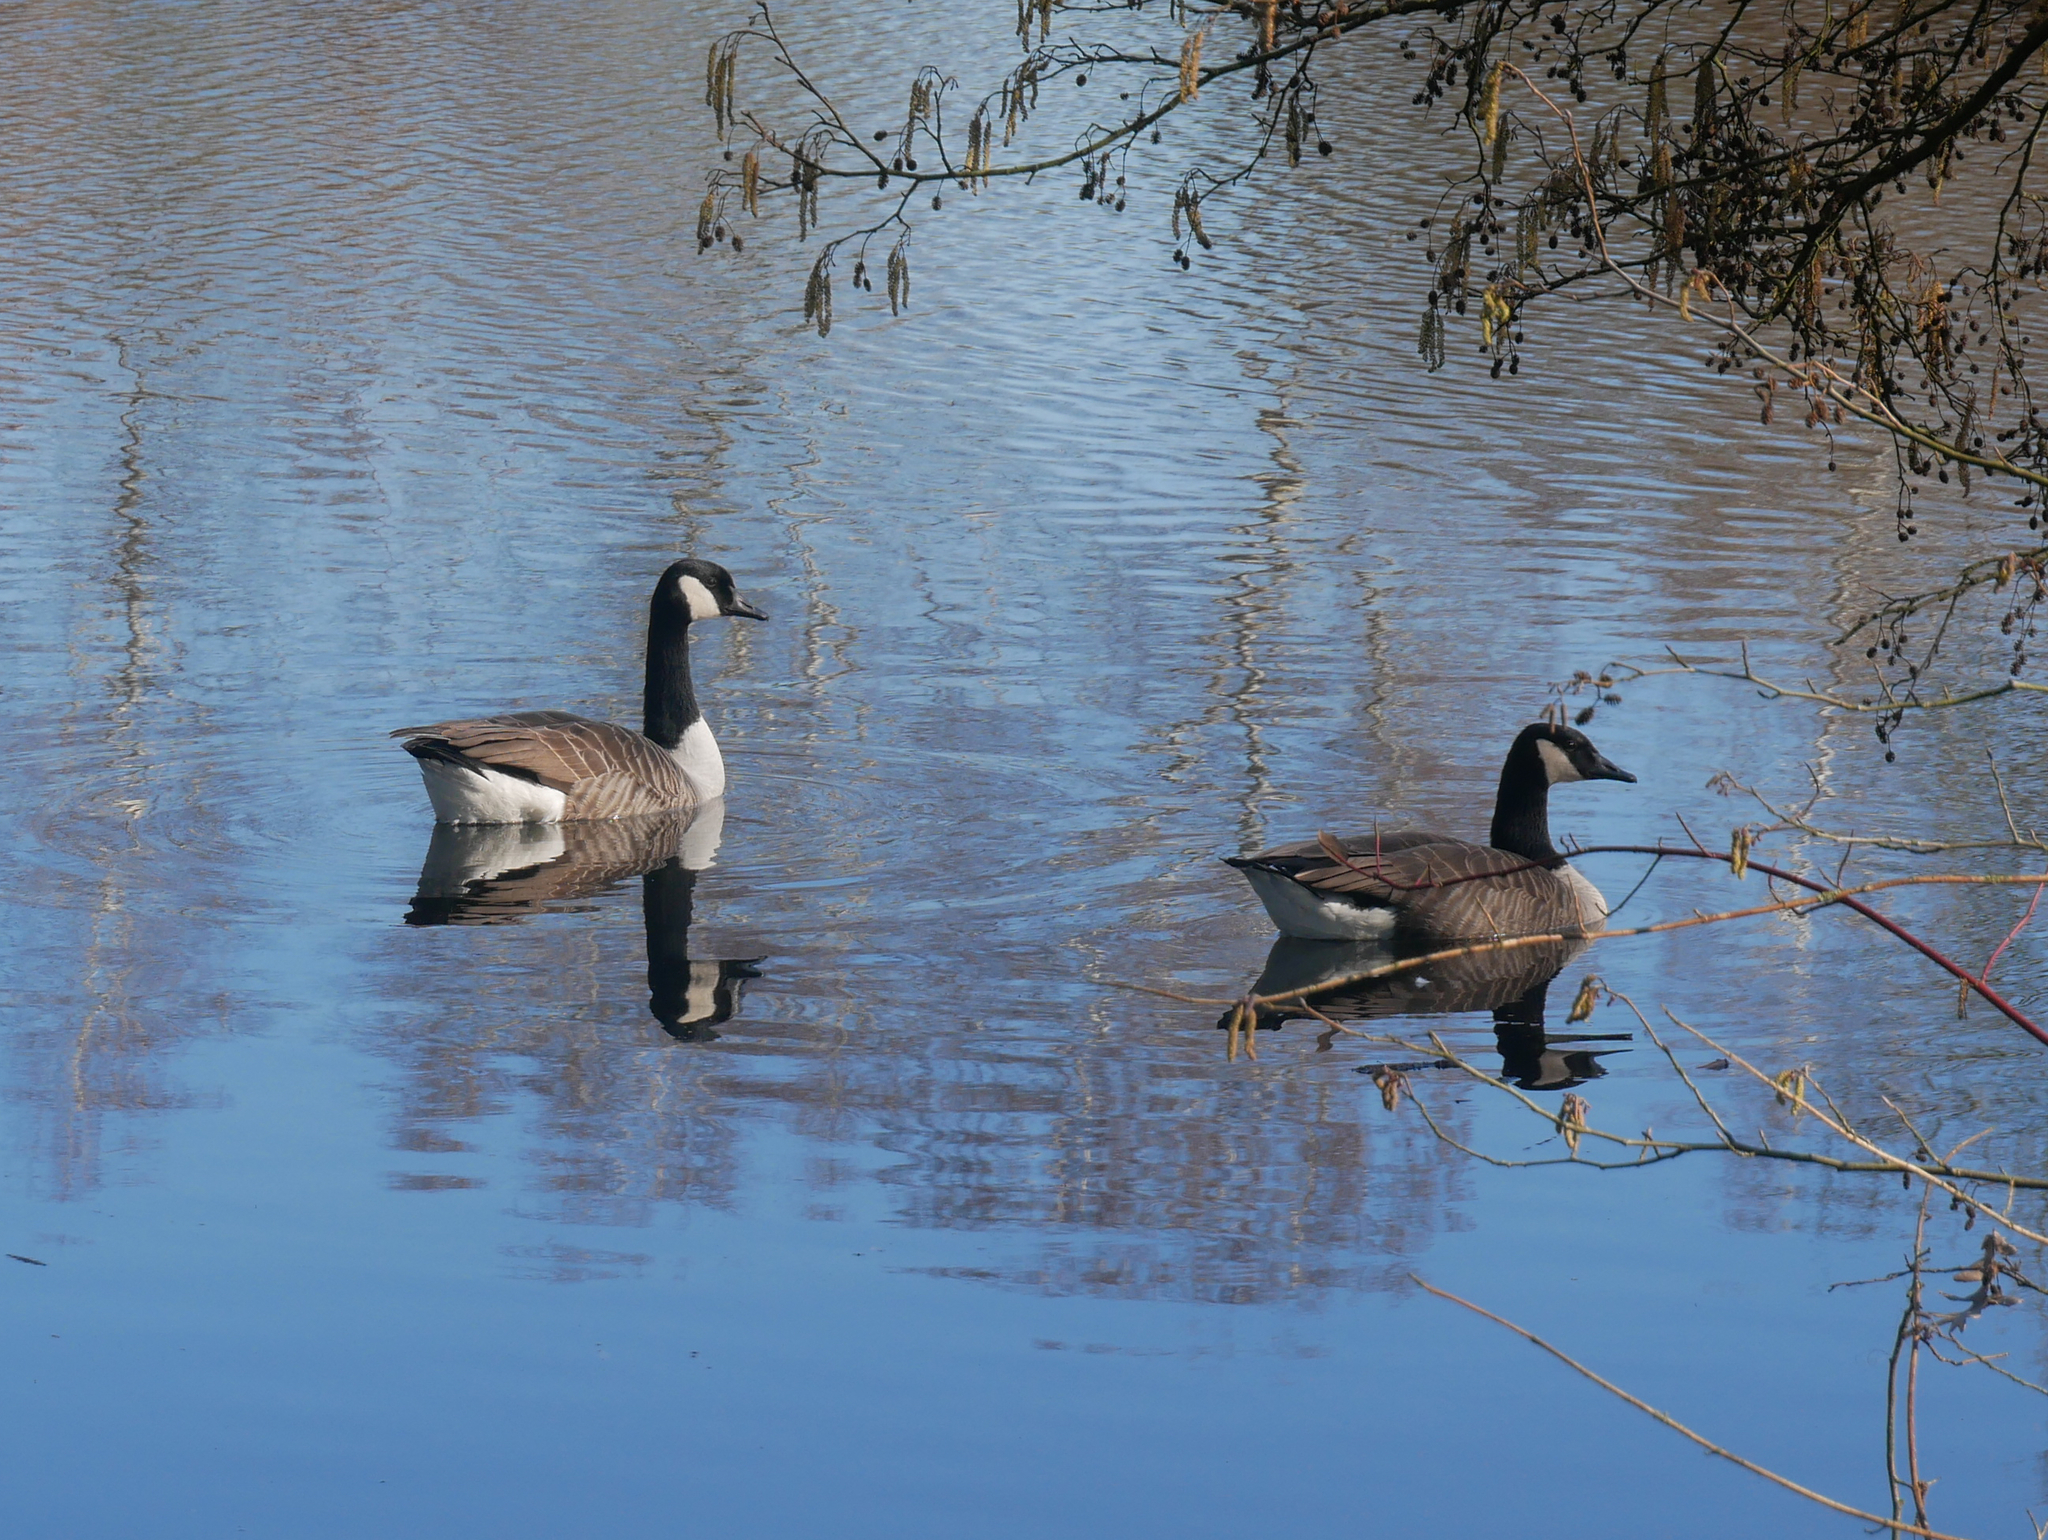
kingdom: Animalia
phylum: Chordata
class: Aves
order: Anseriformes
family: Anatidae
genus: Branta
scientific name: Branta canadensis
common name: Canada goose
